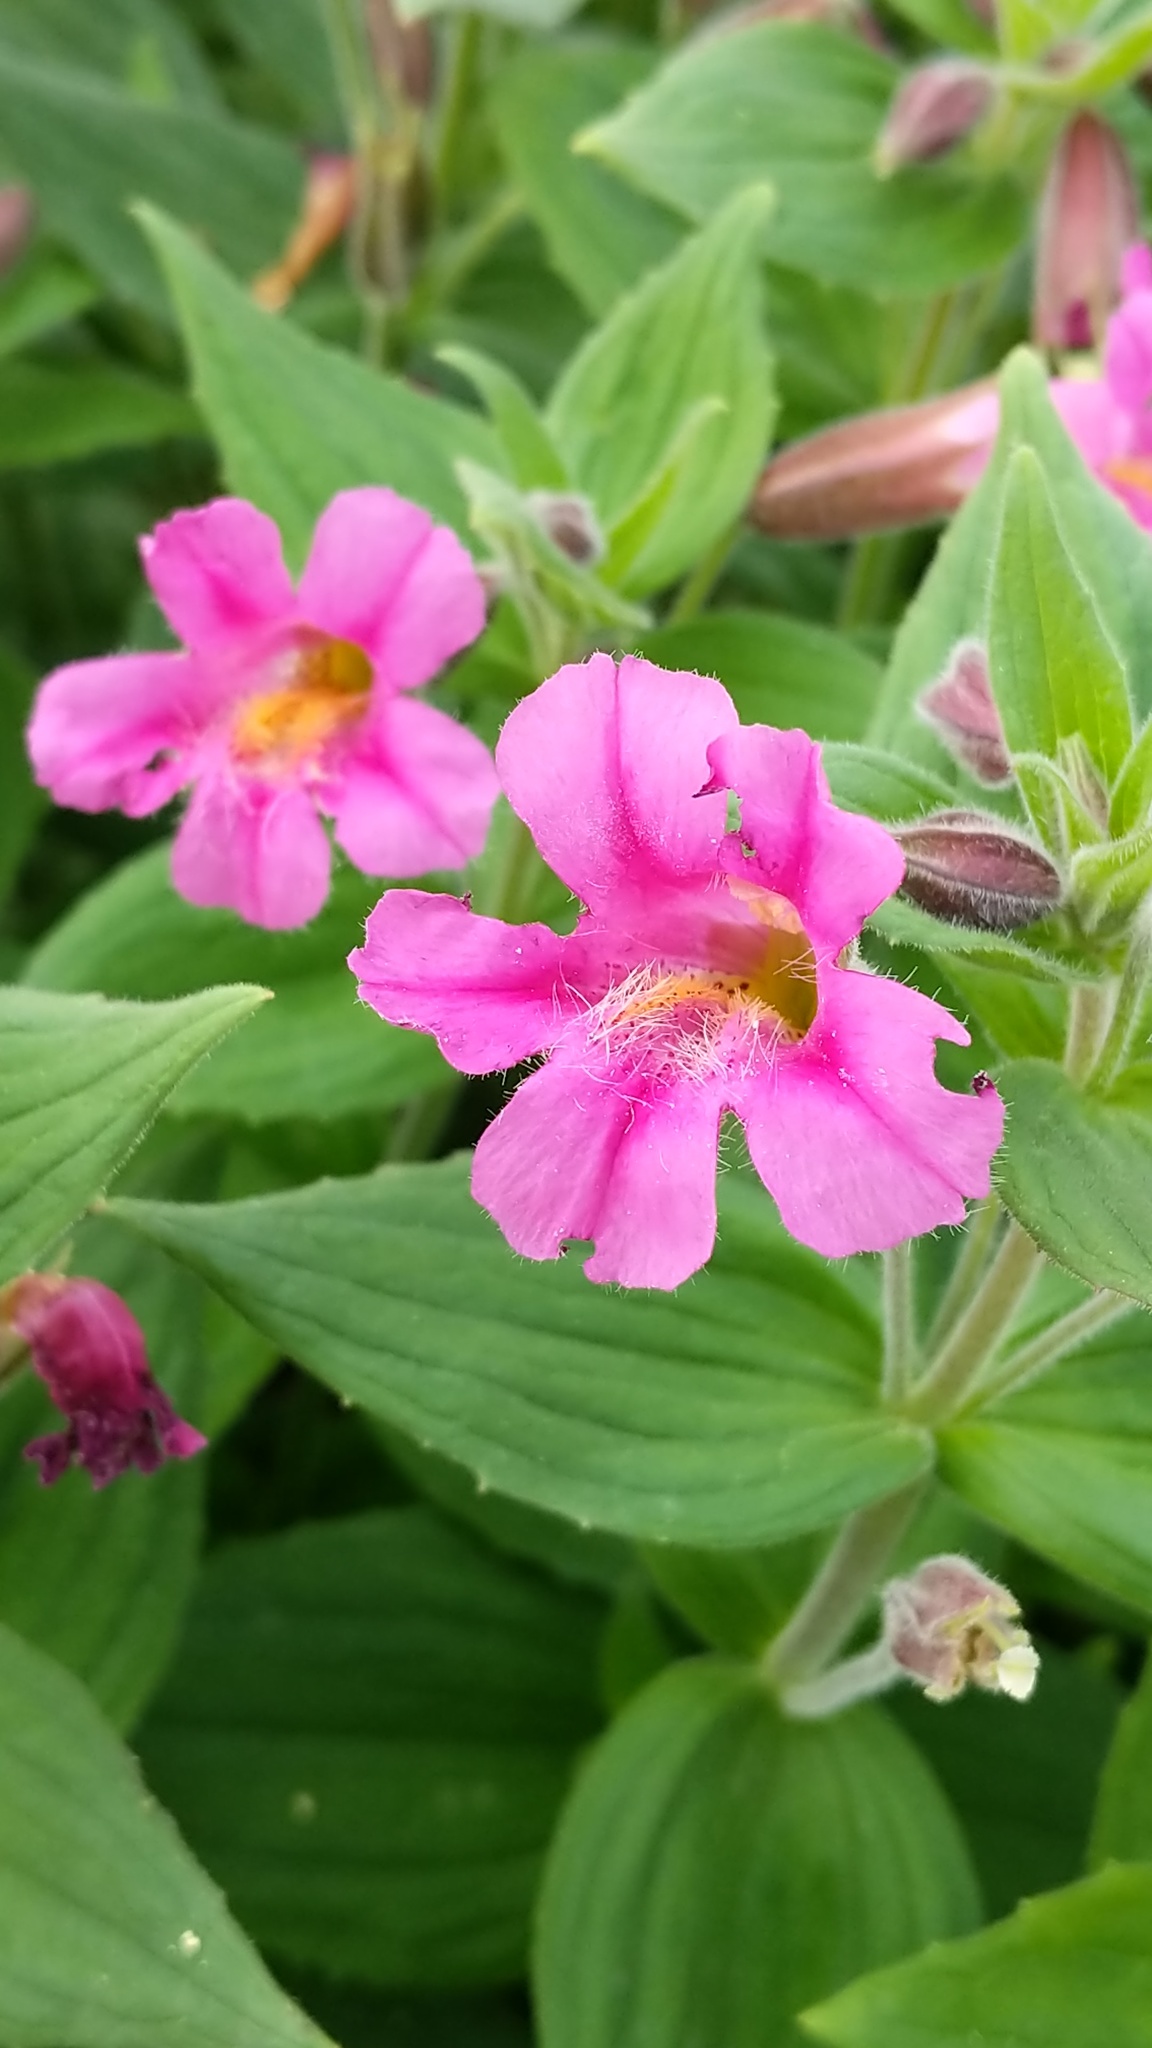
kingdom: Plantae
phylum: Tracheophyta
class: Magnoliopsida
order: Lamiales
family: Phrymaceae
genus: Erythranthe
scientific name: Erythranthe lewisii
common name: Lewis's monkey-flower
